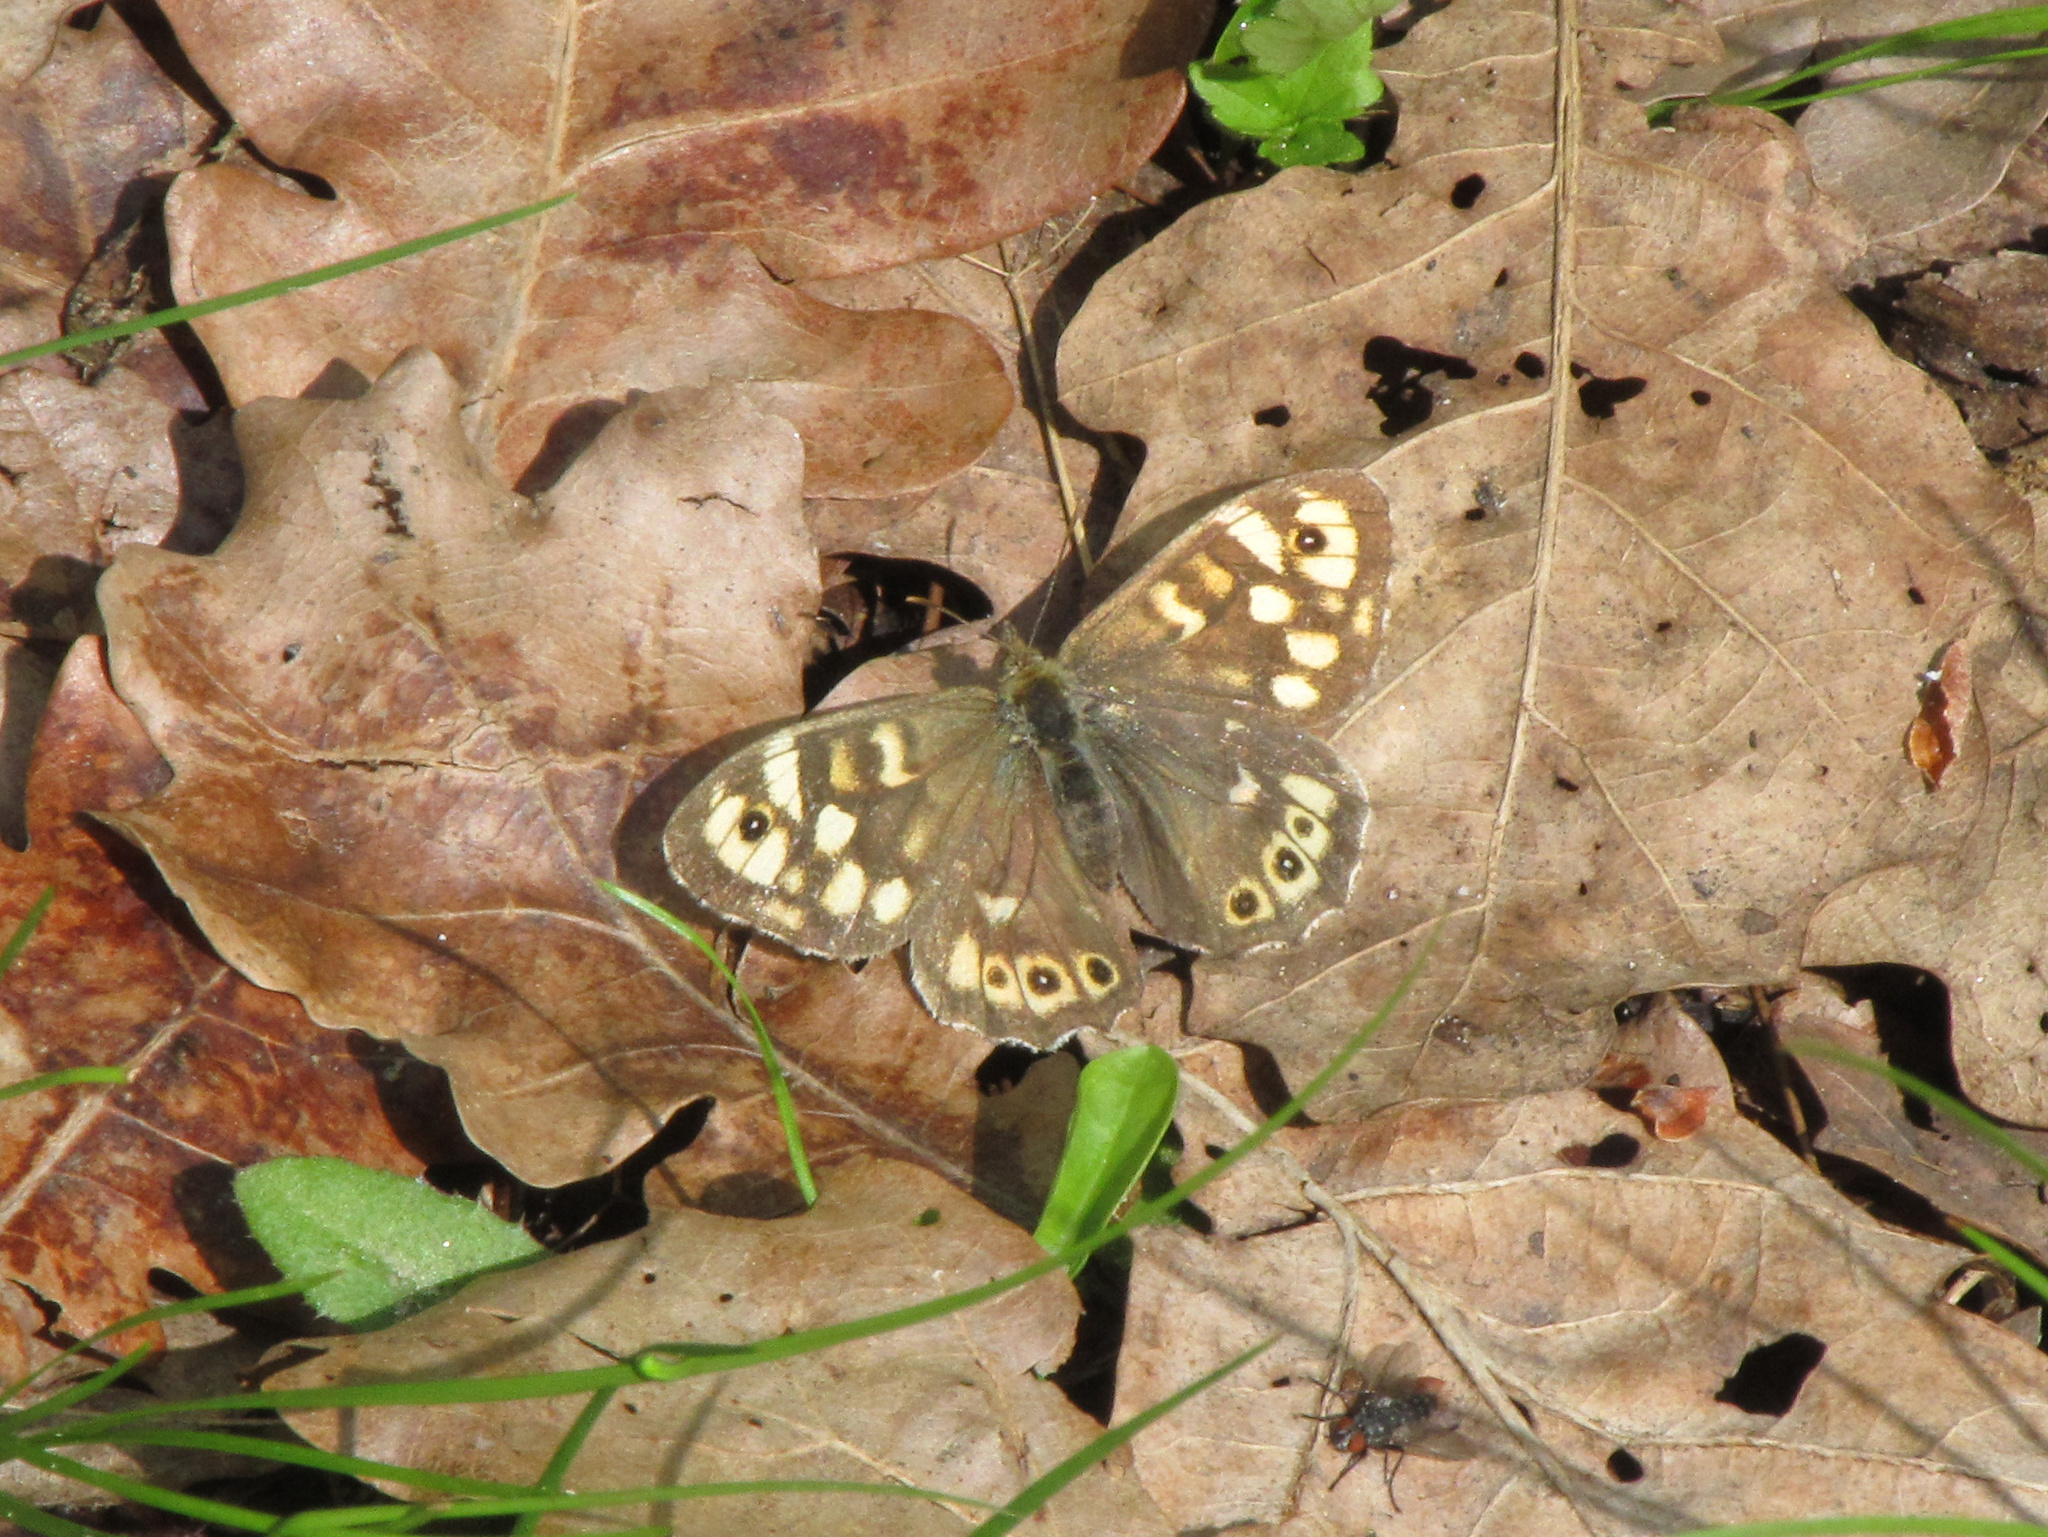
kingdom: Animalia
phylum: Arthropoda
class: Insecta
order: Lepidoptera
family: Nymphalidae
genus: Pararge
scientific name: Pararge aegeria
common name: Speckled wood
